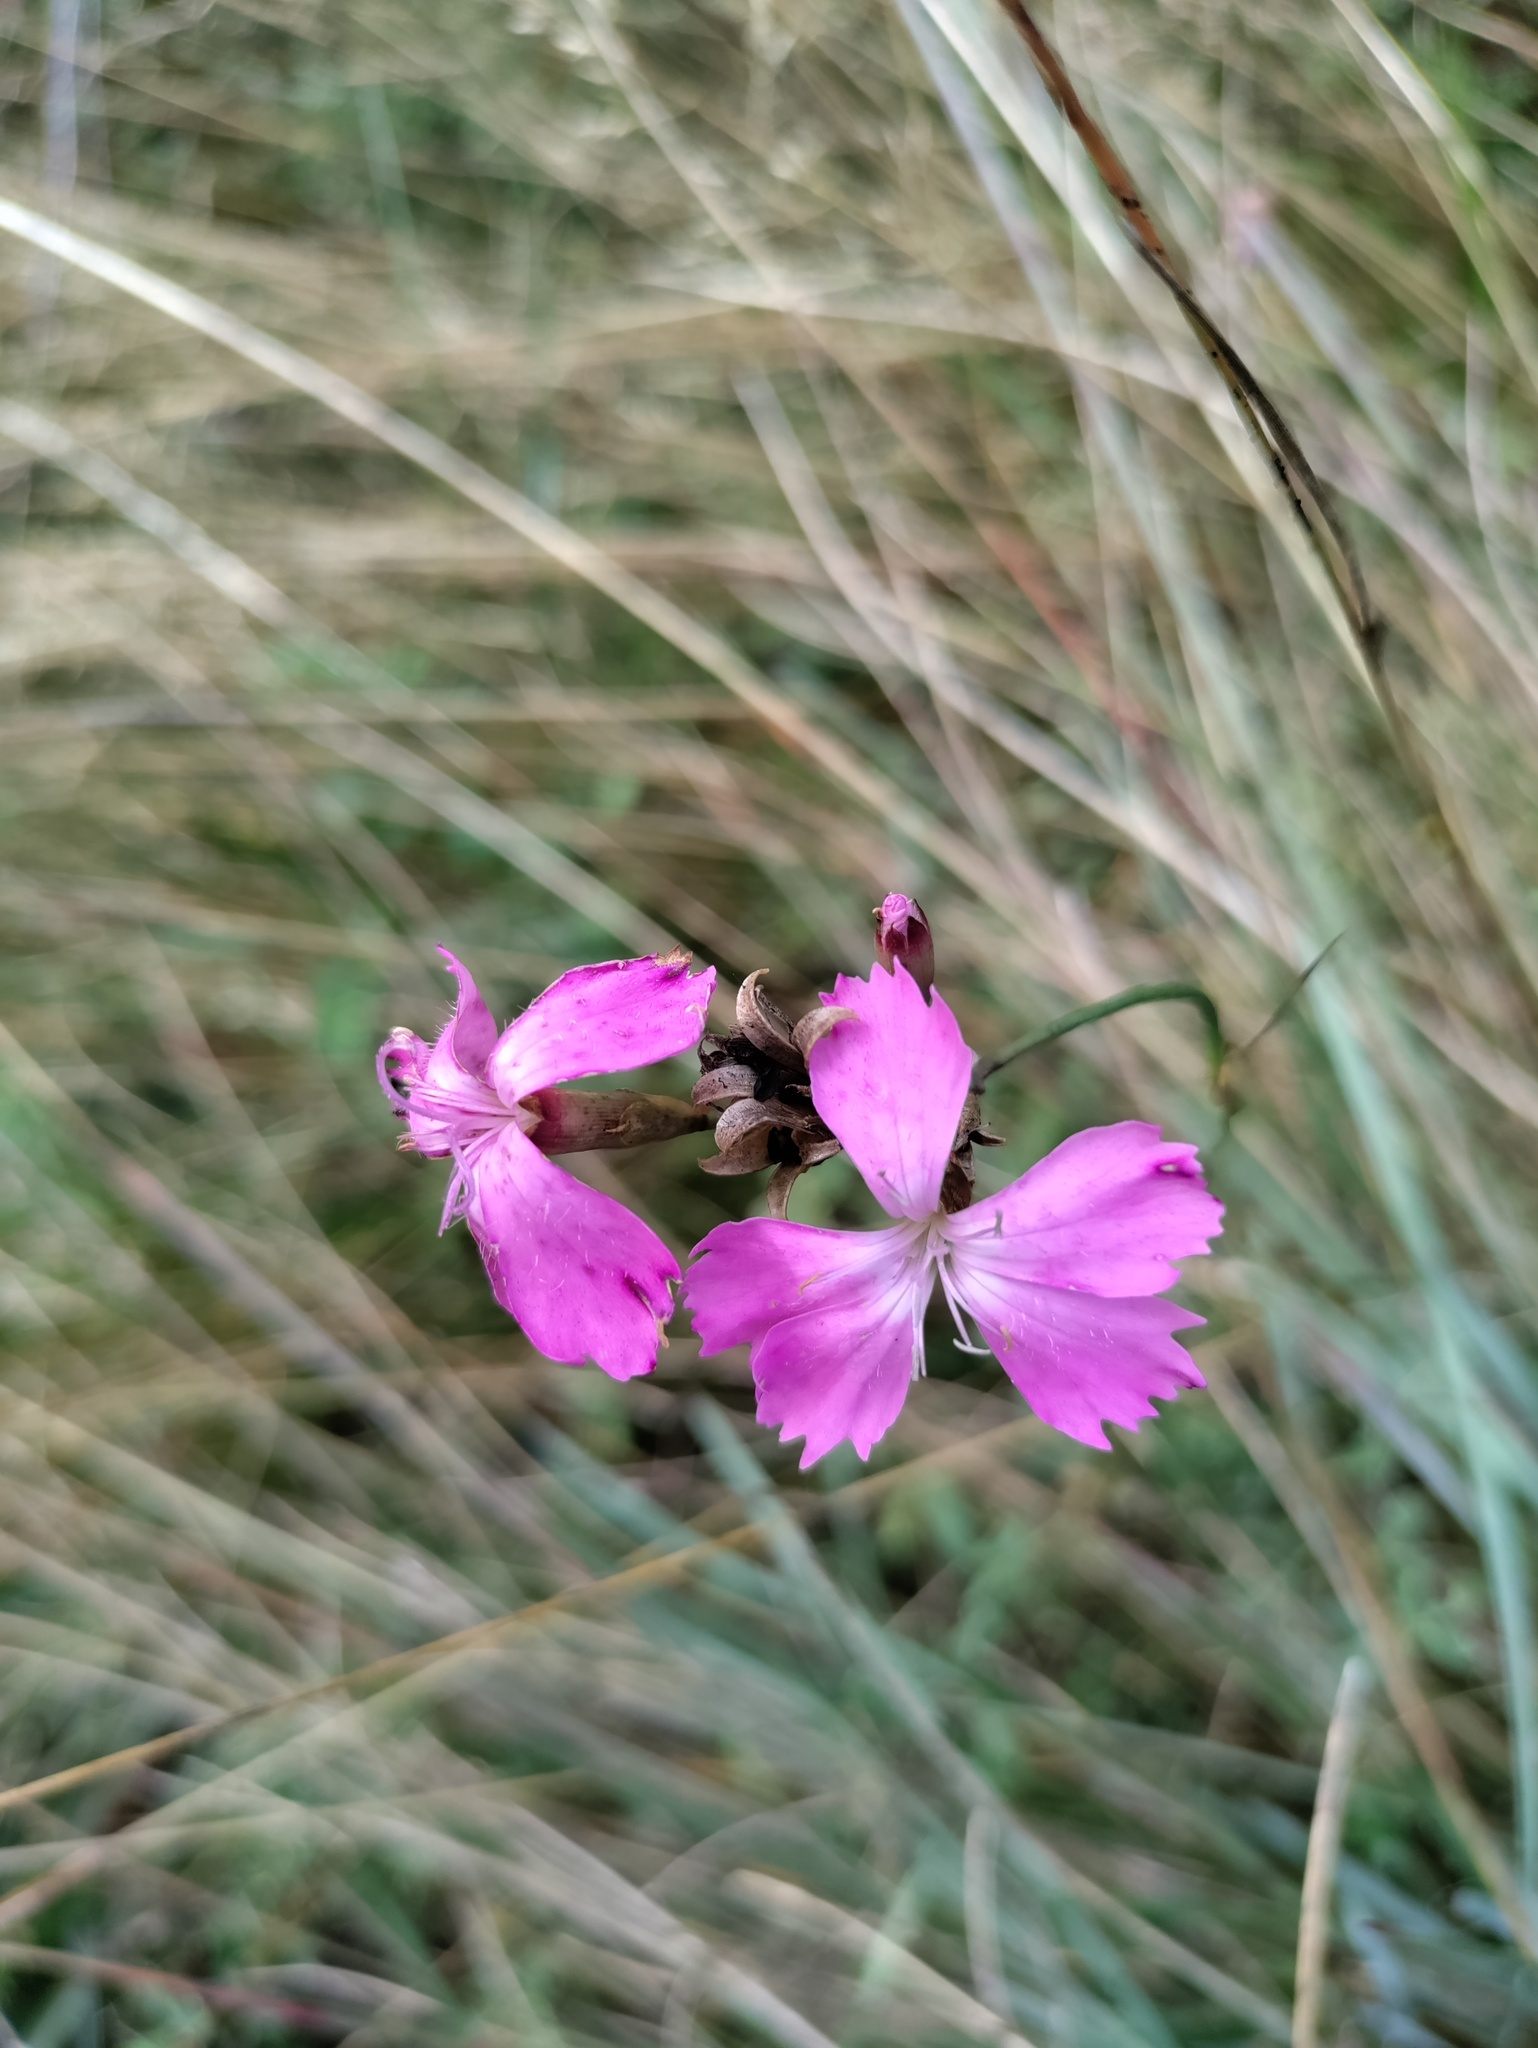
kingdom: Plantae
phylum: Tracheophyta
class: Magnoliopsida
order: Caryophyllales
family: Caryophyllaceae
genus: Dianthus
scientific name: Dianthus carthusianorum
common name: Carthusian pink
